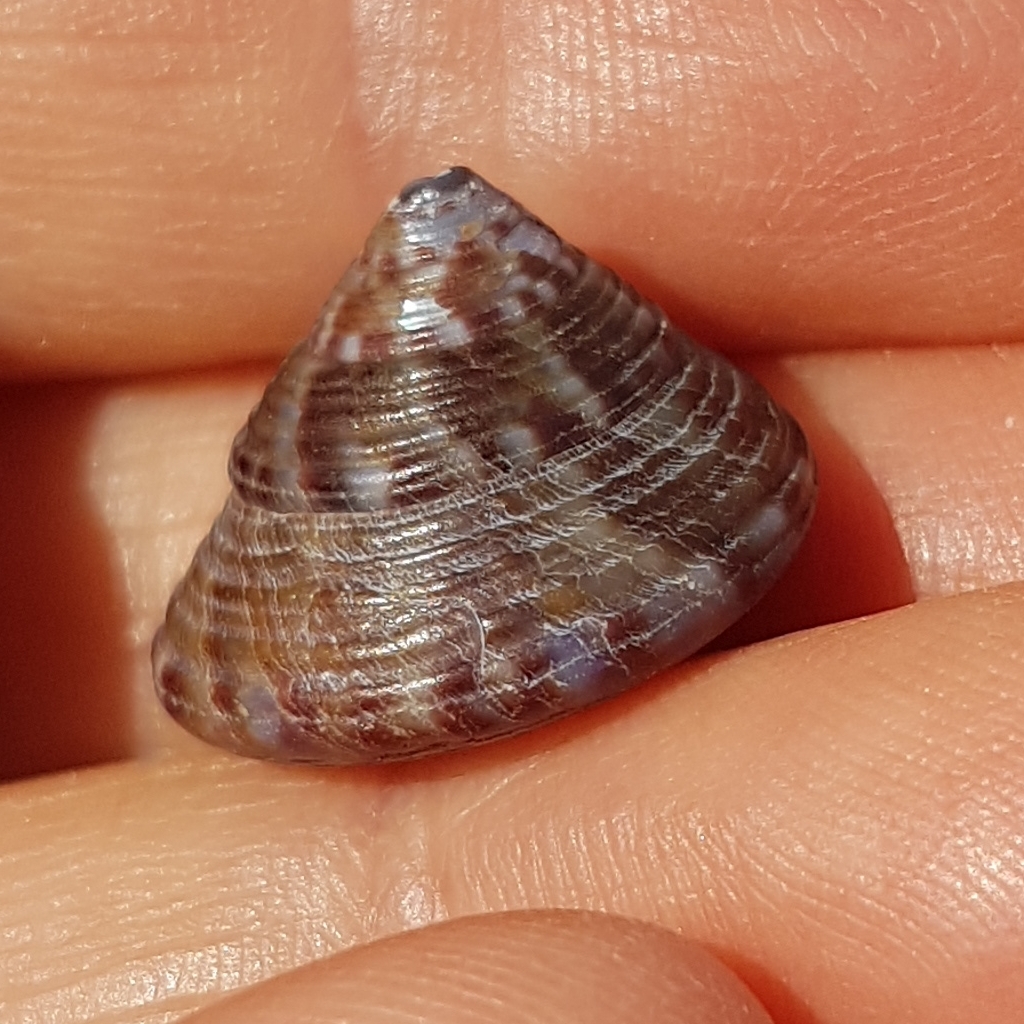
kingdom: Animalia
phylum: Mollusca
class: Gastropoda
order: Trochida
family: Calliostomatidae
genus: Calliostoma
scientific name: Calliostoma zizyphinum
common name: Painted top shell
